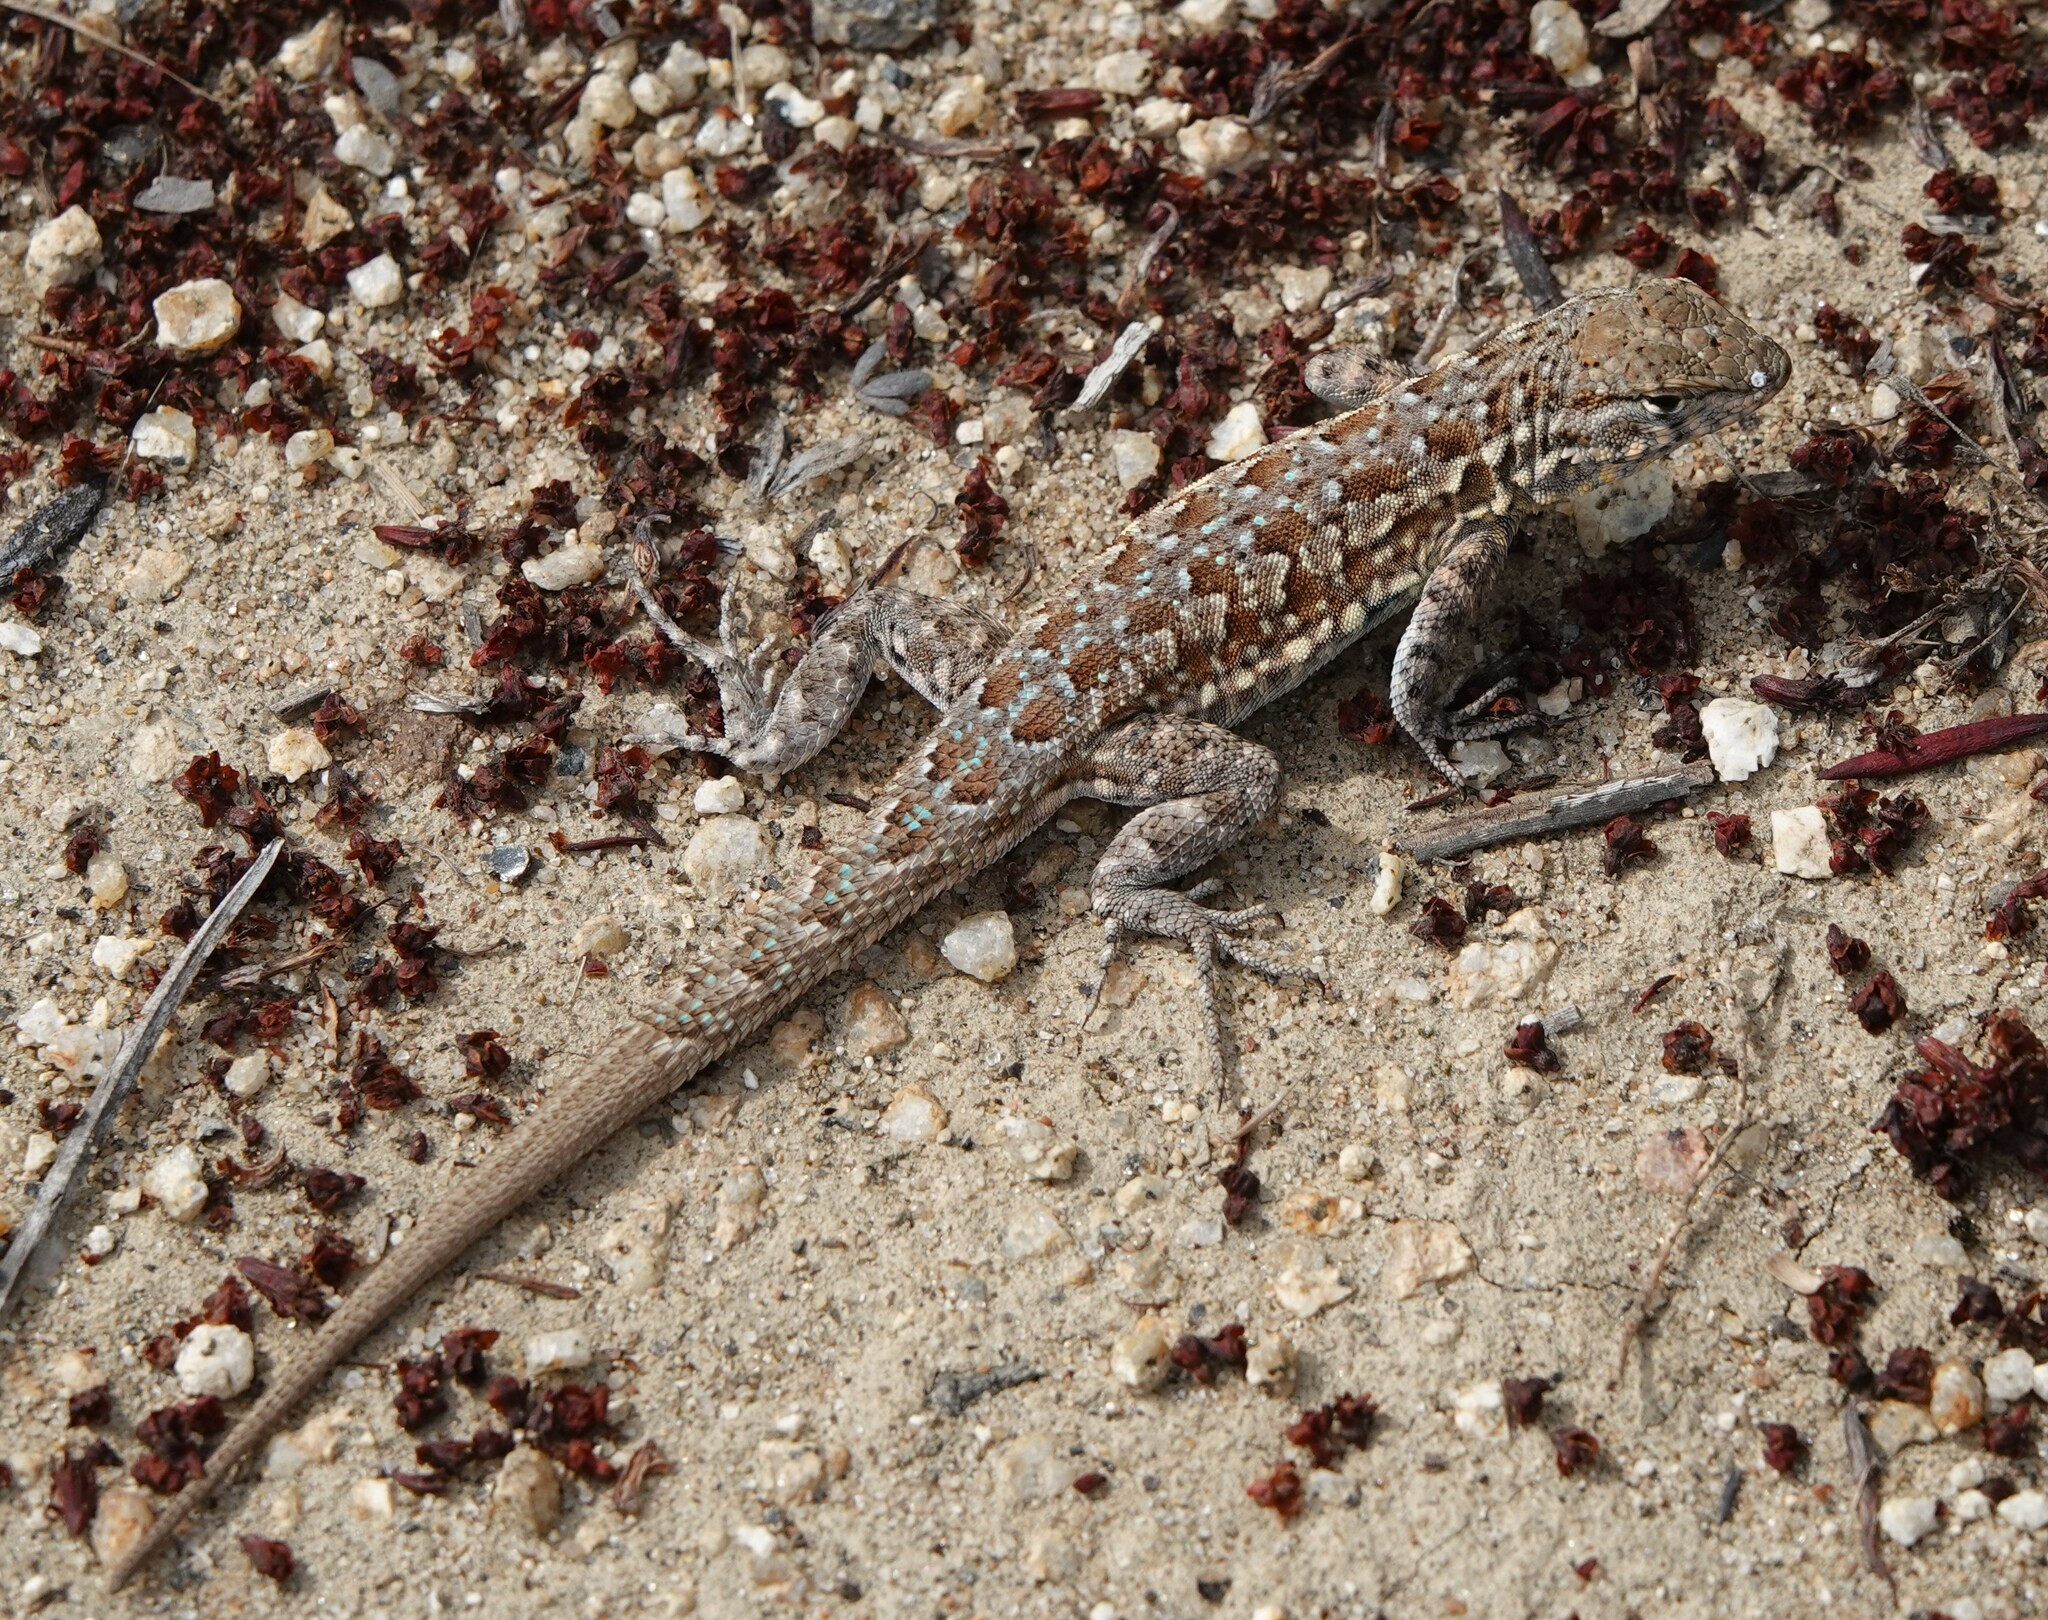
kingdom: Animalia
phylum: Chordata
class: Squamata
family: Phrynosomatidae
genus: Uta
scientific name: Uta stansburiana
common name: Side-blotched lizard
